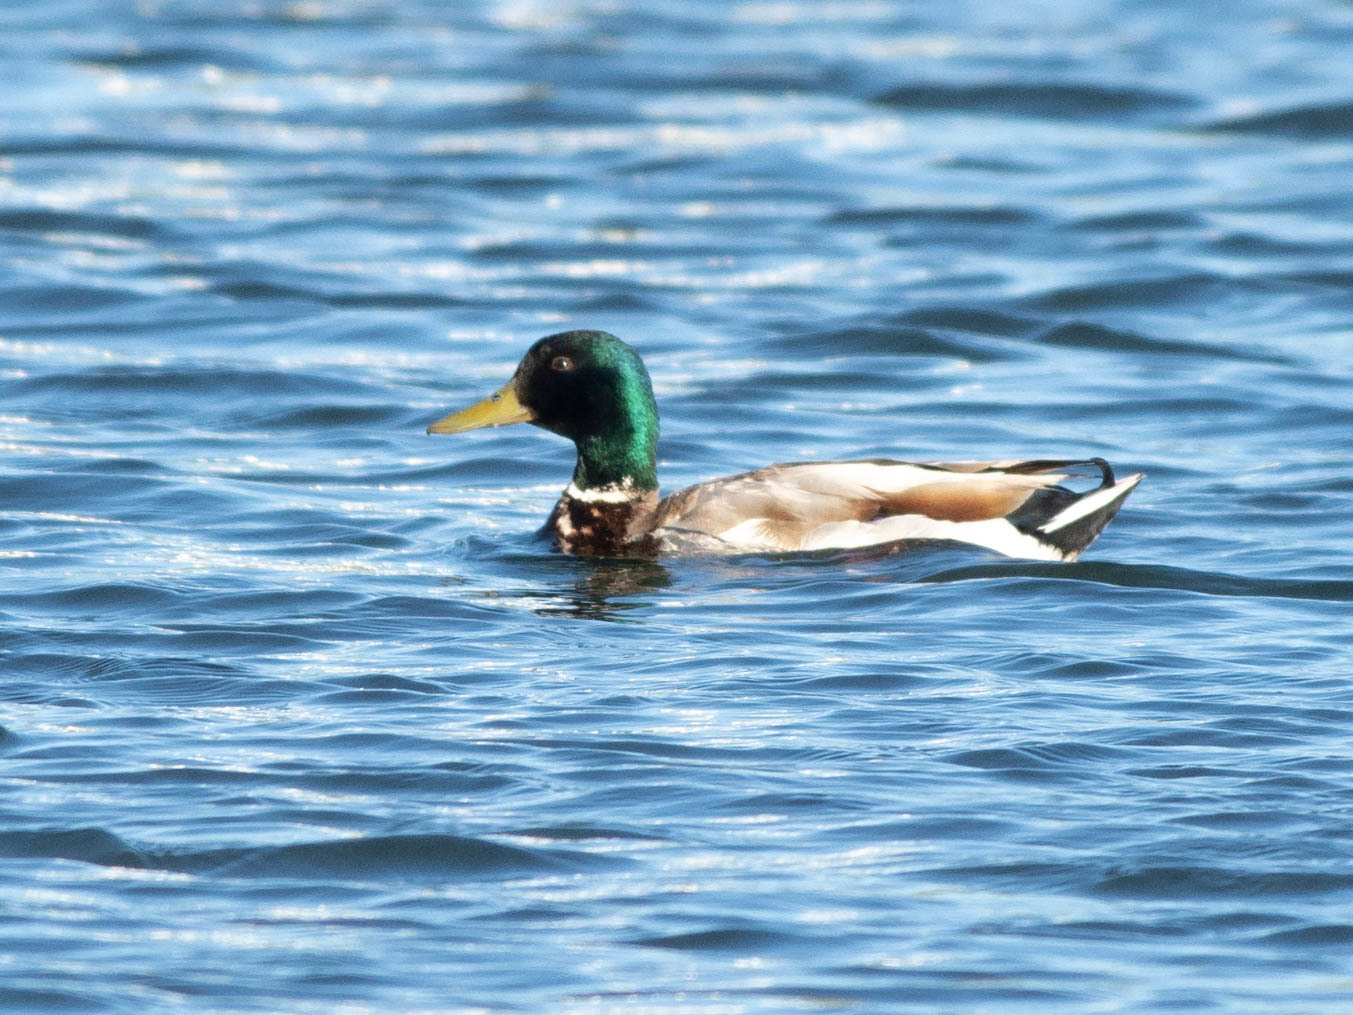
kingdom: Animalia
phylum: Chordata
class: Aves
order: Anseriformes
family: Anatidae
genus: Anas
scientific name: Anas platyrhynchos
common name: Mallard
